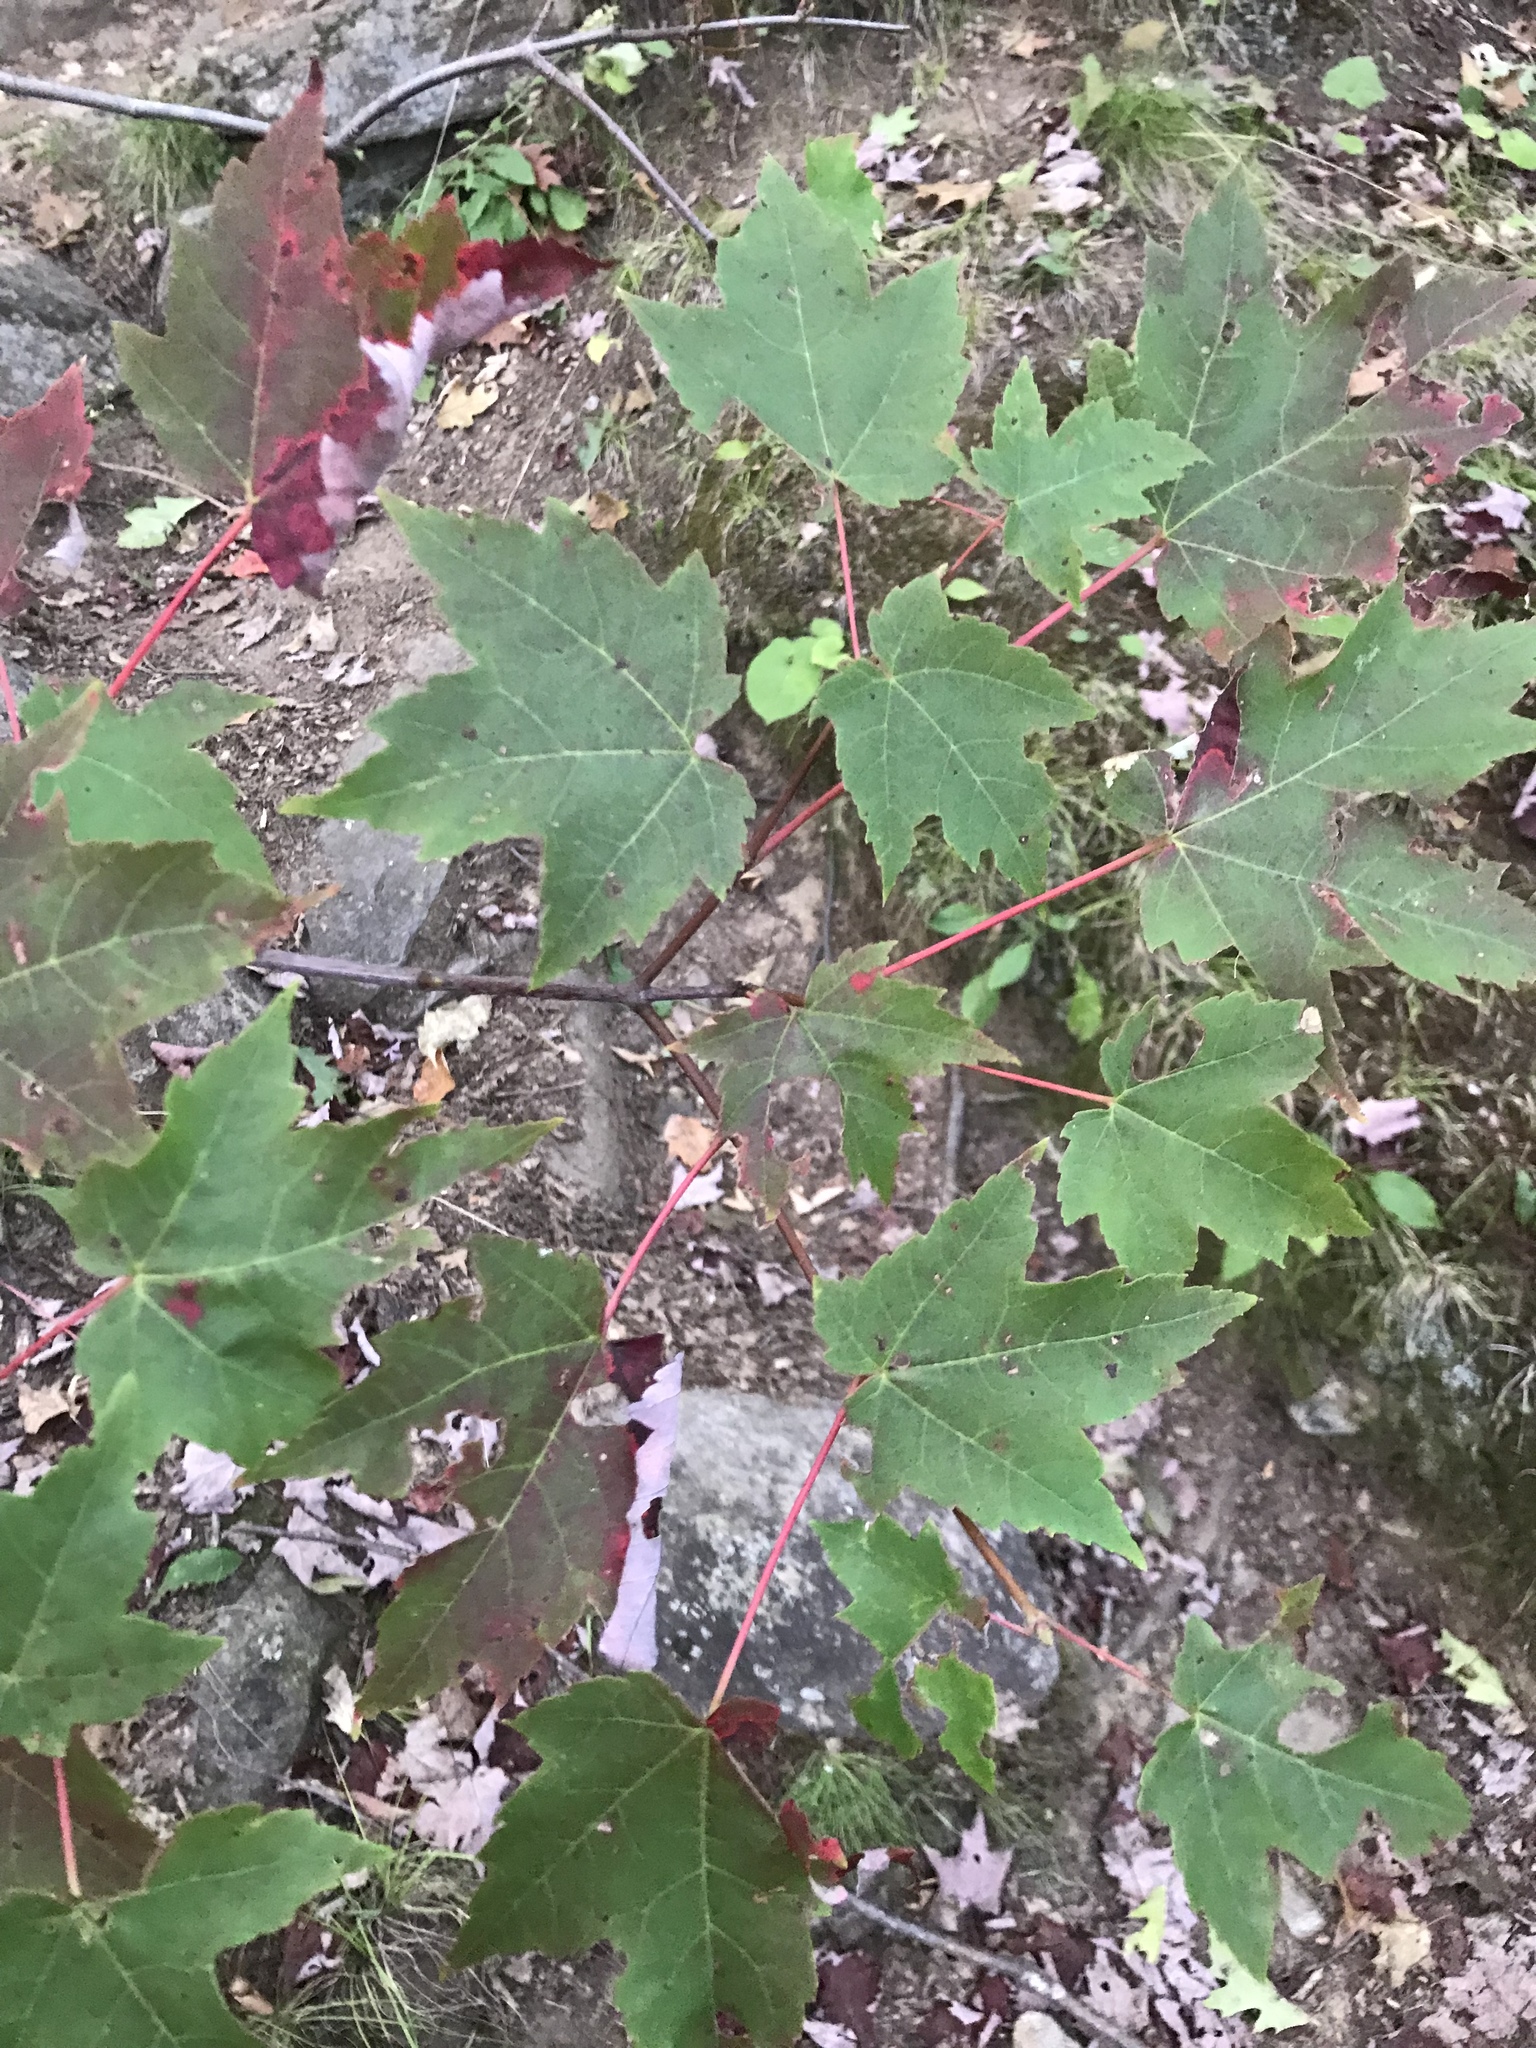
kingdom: Plantae
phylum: Tracheophyta
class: Magnoliopsida
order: Sapindales
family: Sapindaceae
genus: Acer
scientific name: Acer rubrum
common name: Red maple
